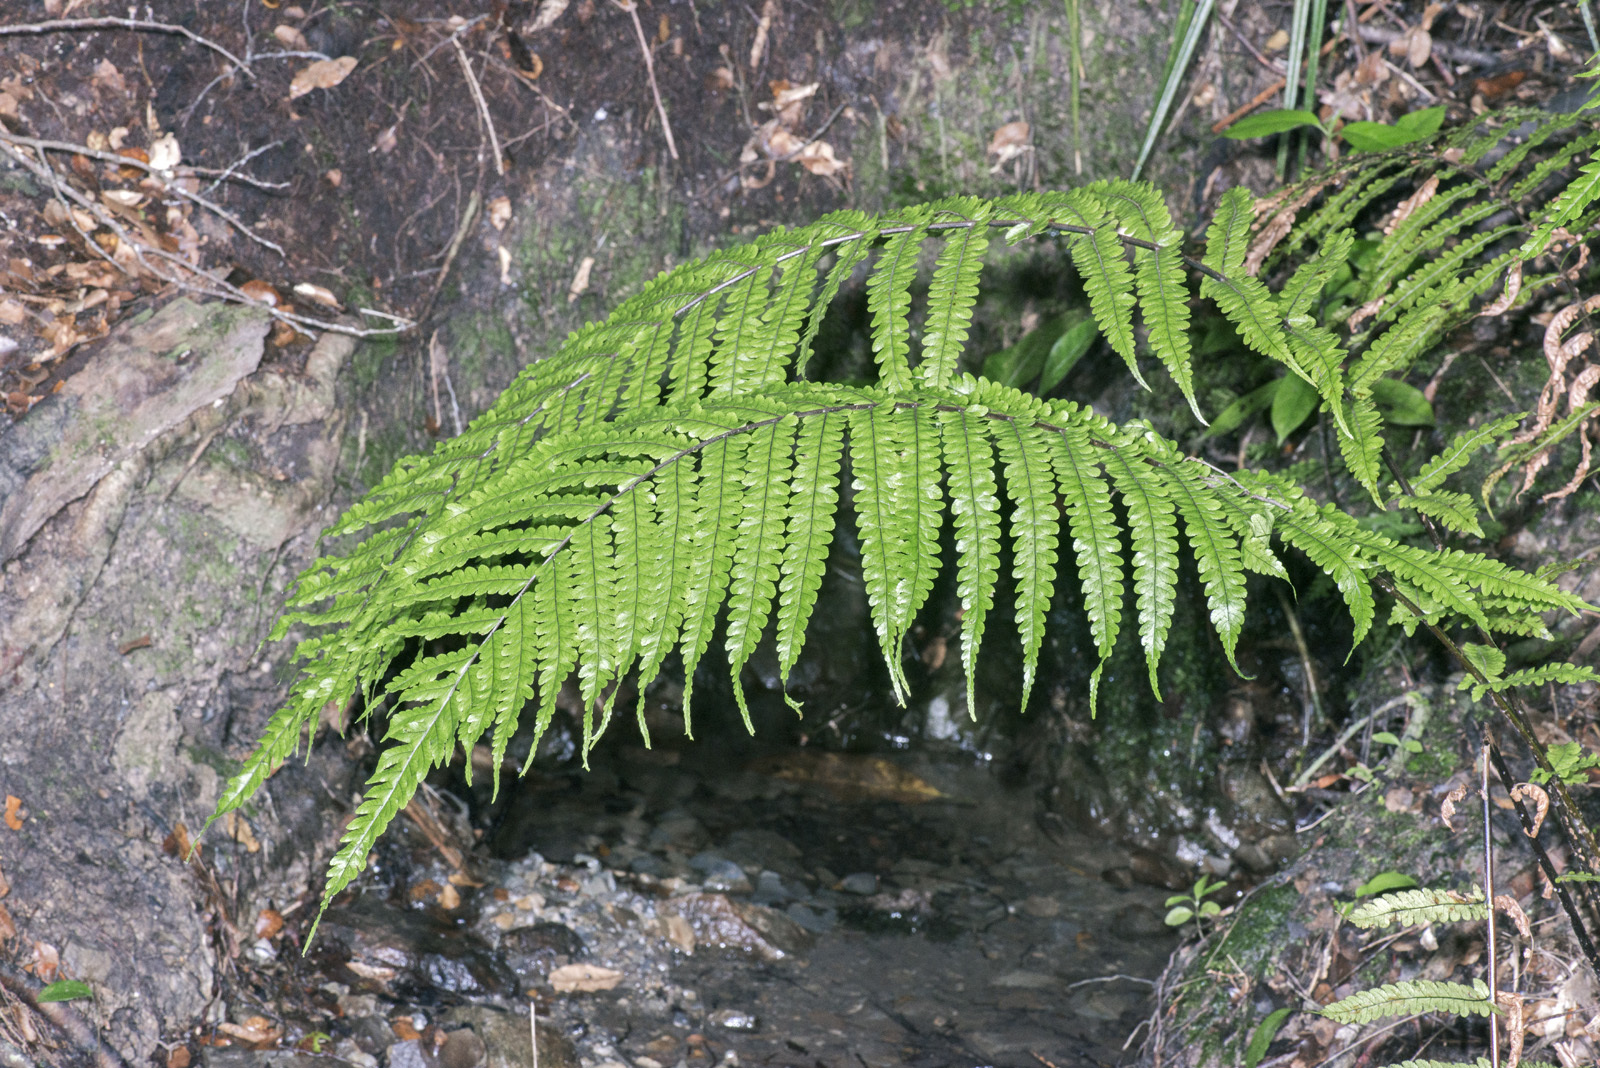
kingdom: Plantae
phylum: Tracheophyta
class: Polypodiopsida
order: Polypodiales
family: Thelypteridaceae
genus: Pakau
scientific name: Pakau pennigera
